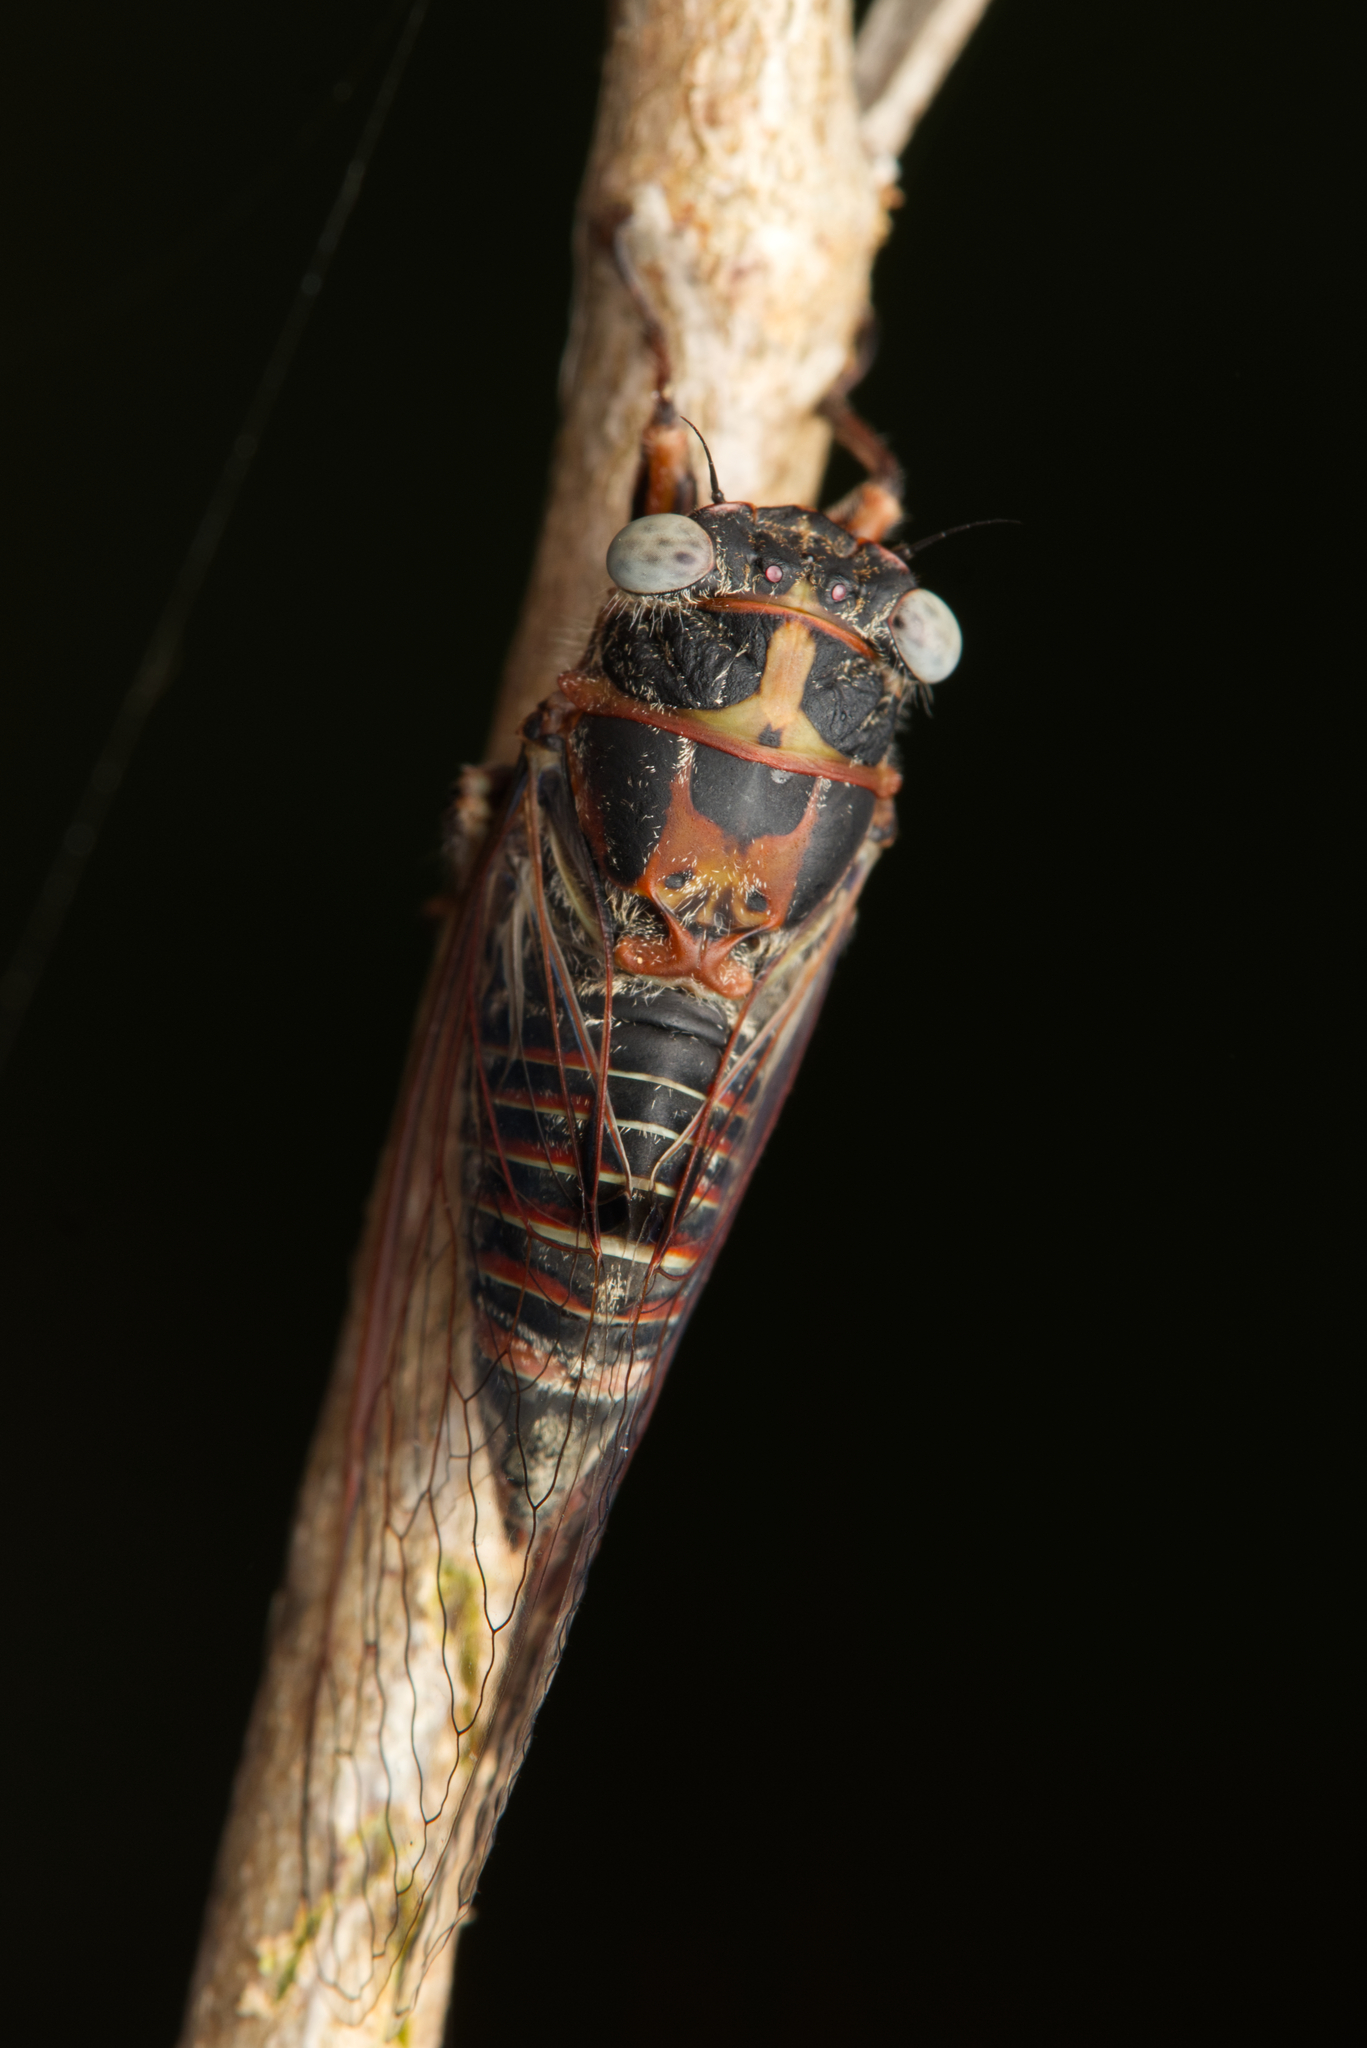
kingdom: Animalia
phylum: Arthropoda
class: Insecta
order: Hemiptera
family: Cicadidae
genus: Atrapsalta
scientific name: Atrapsalta corticina
